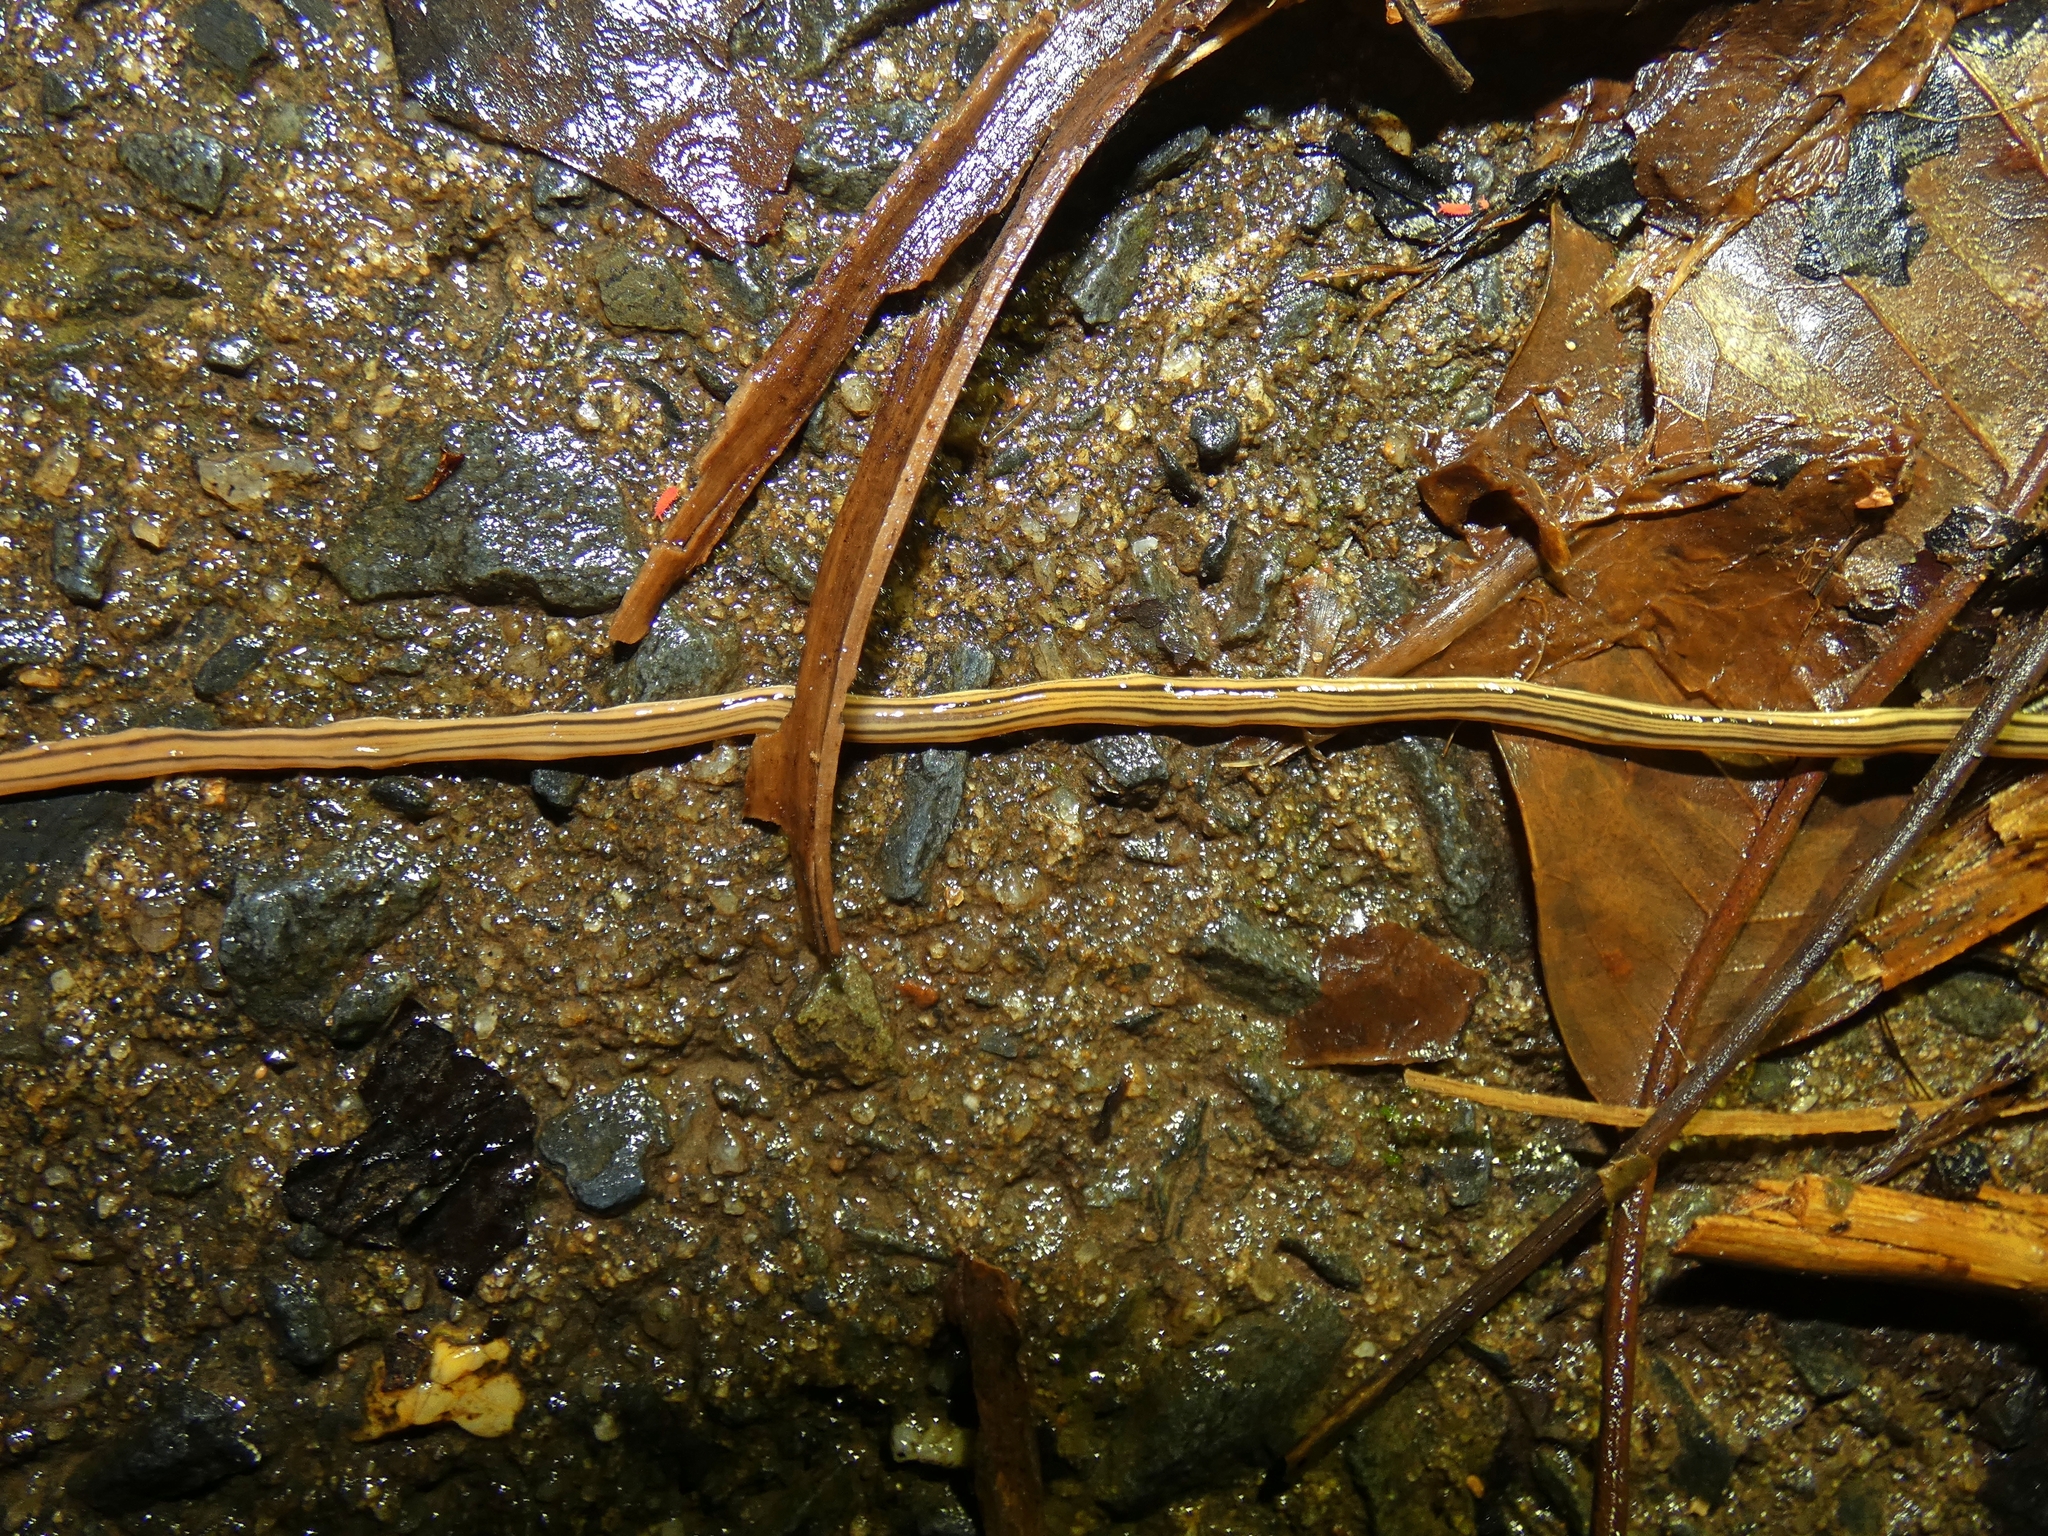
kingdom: Animalia
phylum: Platyhelminthes
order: Tricladida
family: Geoplanidae
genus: Dolichoplana
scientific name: Dolichoplana striata
